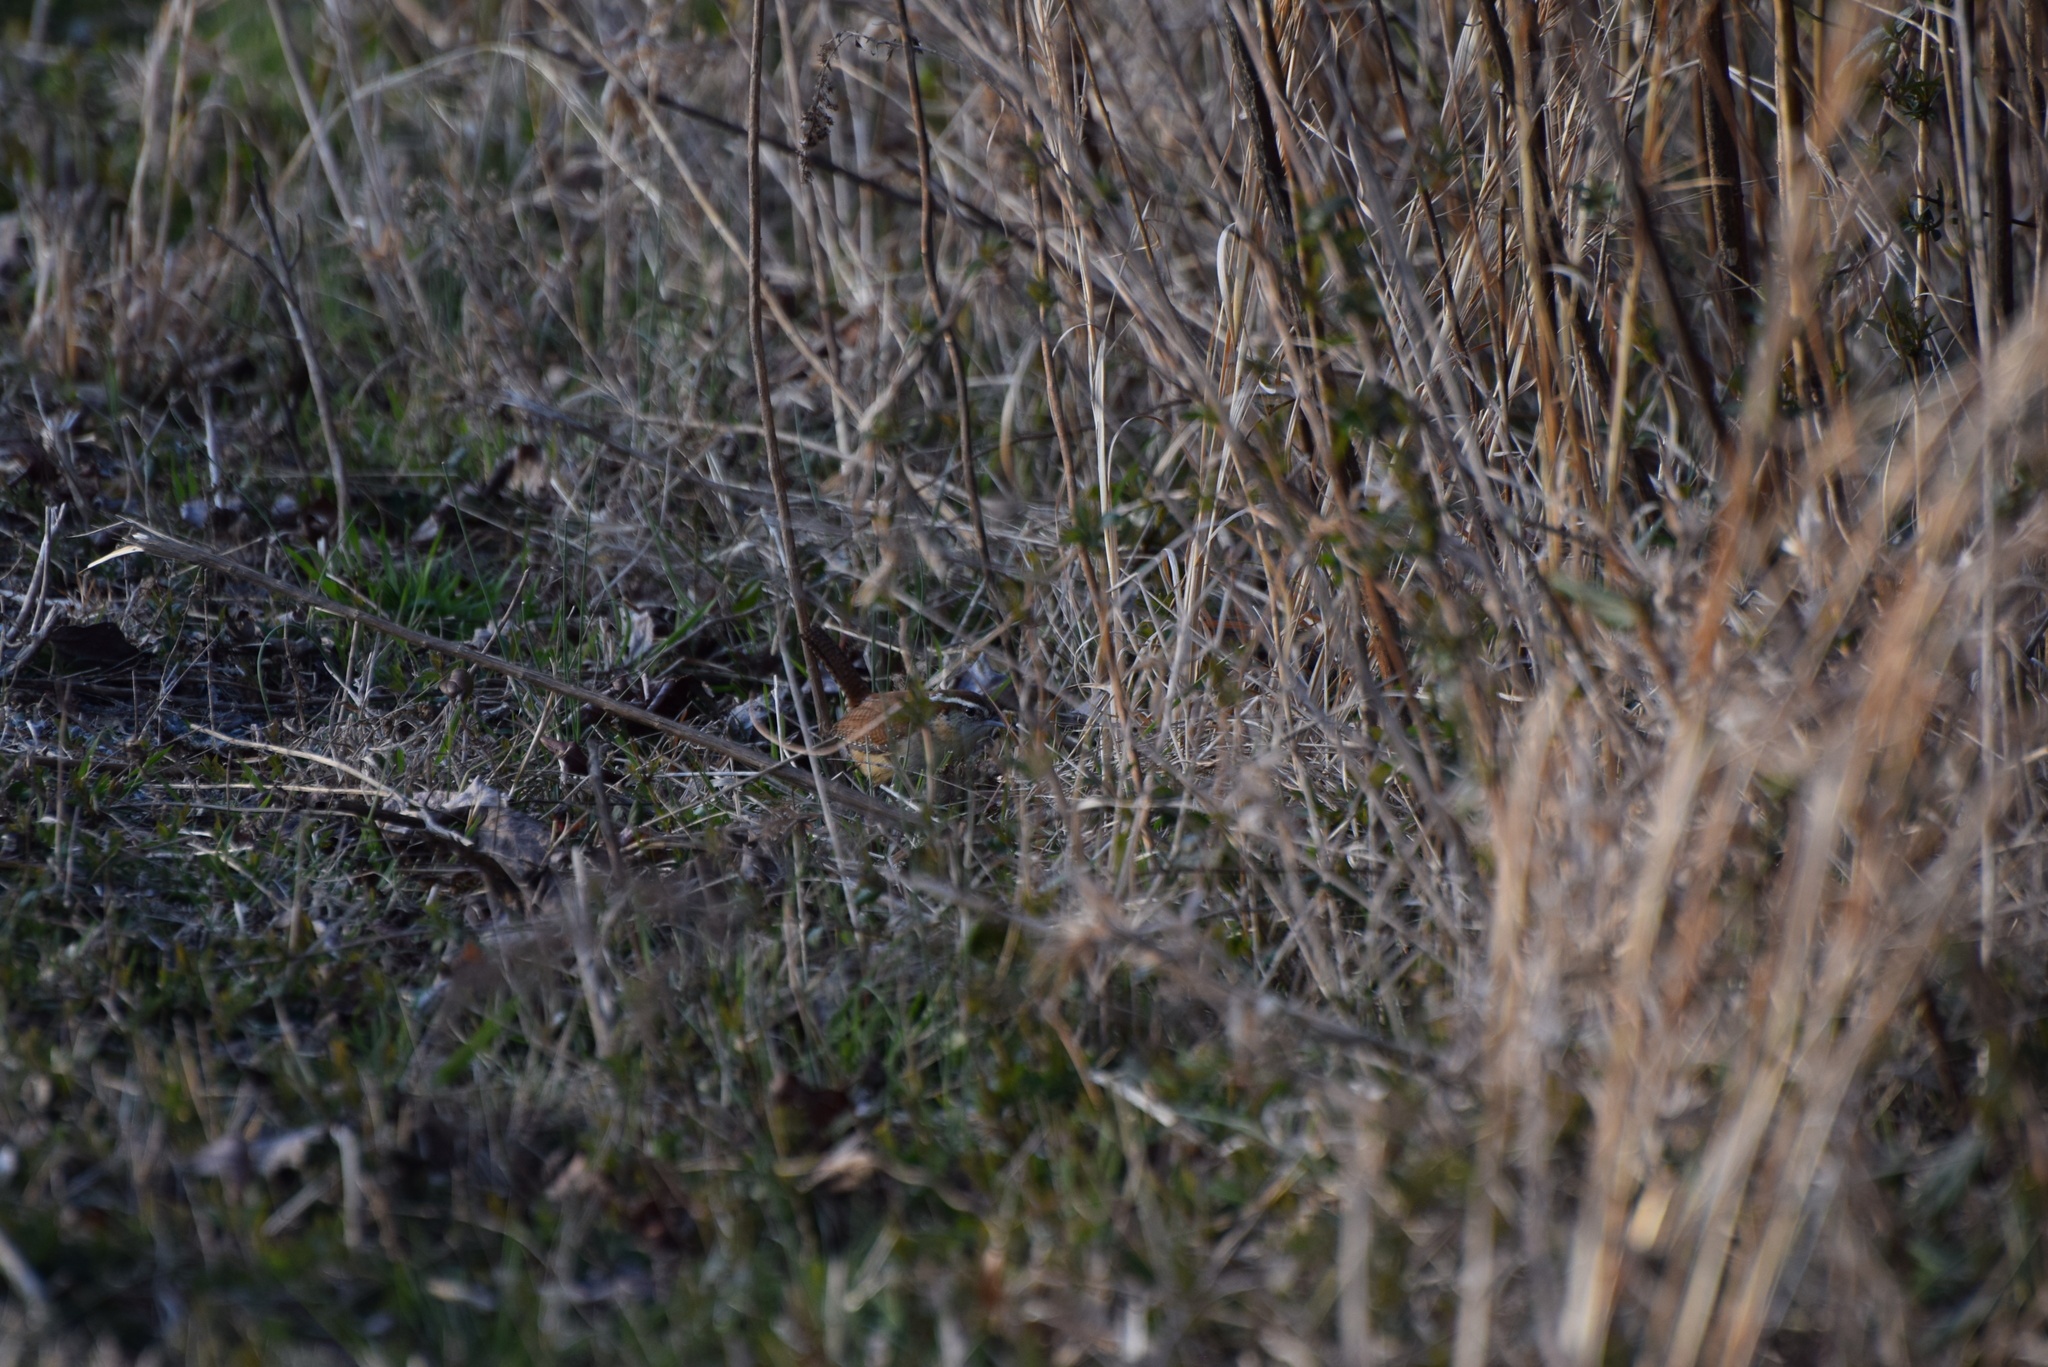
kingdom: Animalia
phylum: Chordata
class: Aves
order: Passeriformes
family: Troglodytidae
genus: Thryothorus
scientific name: Thryothorus ludovicianus
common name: Carolina wren
